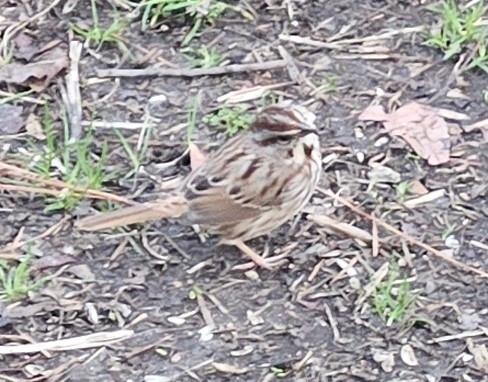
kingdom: Animalia
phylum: Chordata
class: Aves
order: Passeriformes
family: Passerellidae
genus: Melospiza
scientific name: Melospiza melodia
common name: Song sparrow
